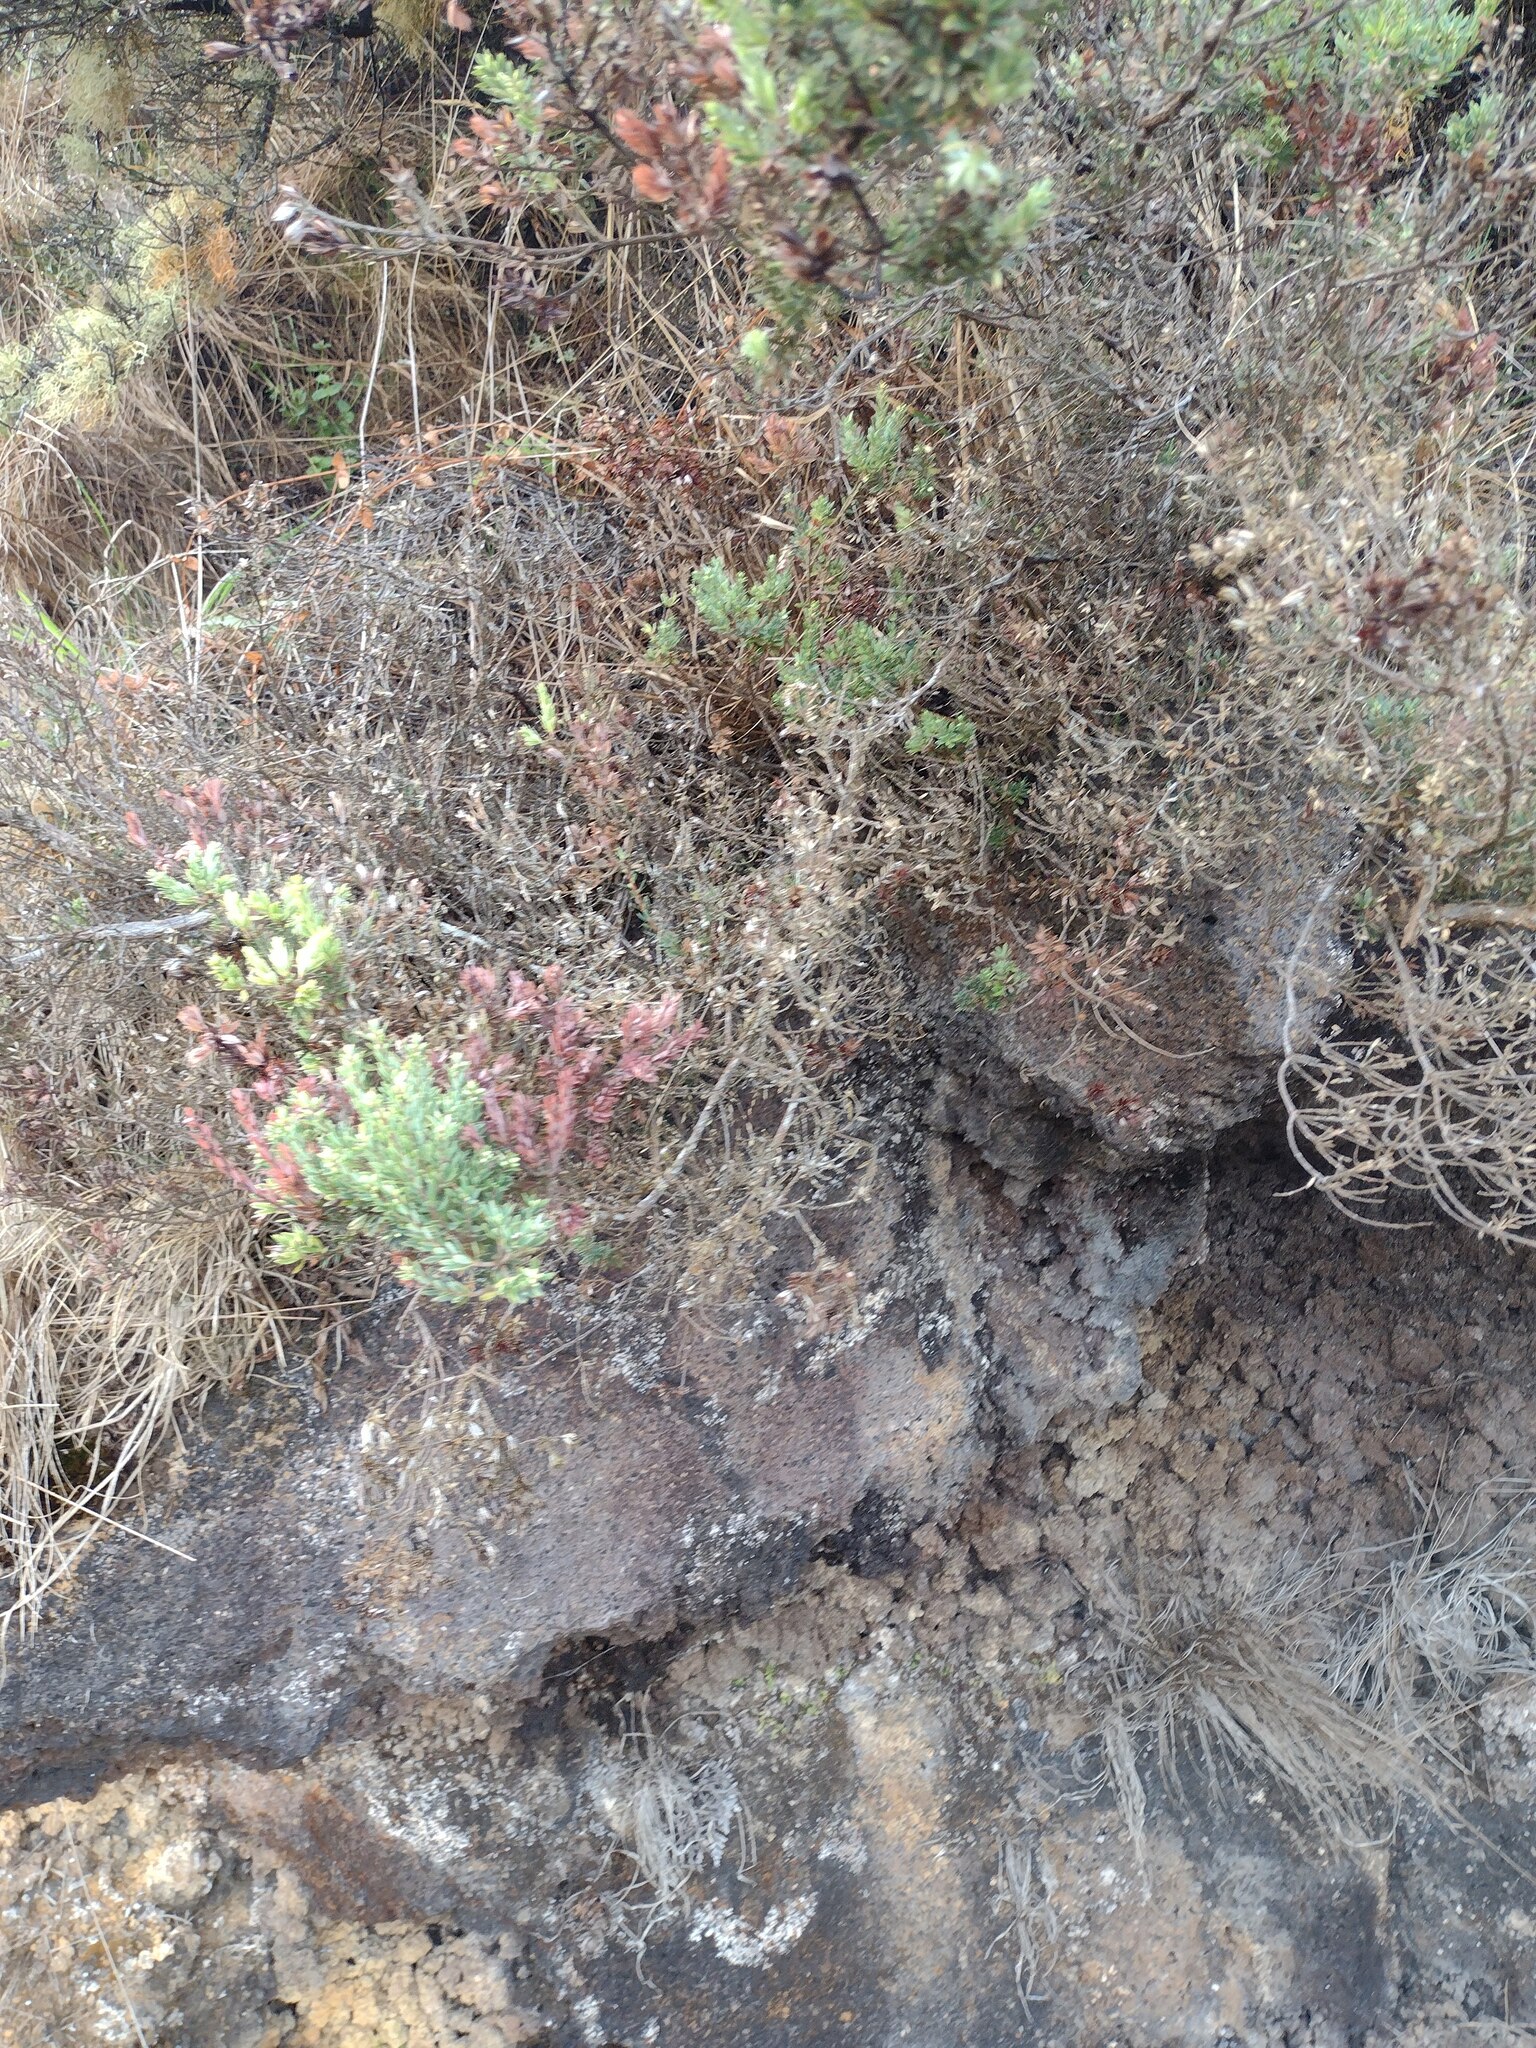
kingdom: Plantae
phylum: Tracheophyta
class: Magnoliopsida
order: Ericales
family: Ericaceae
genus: Leptecophylla
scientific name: Leptecophylla tameiameiae
